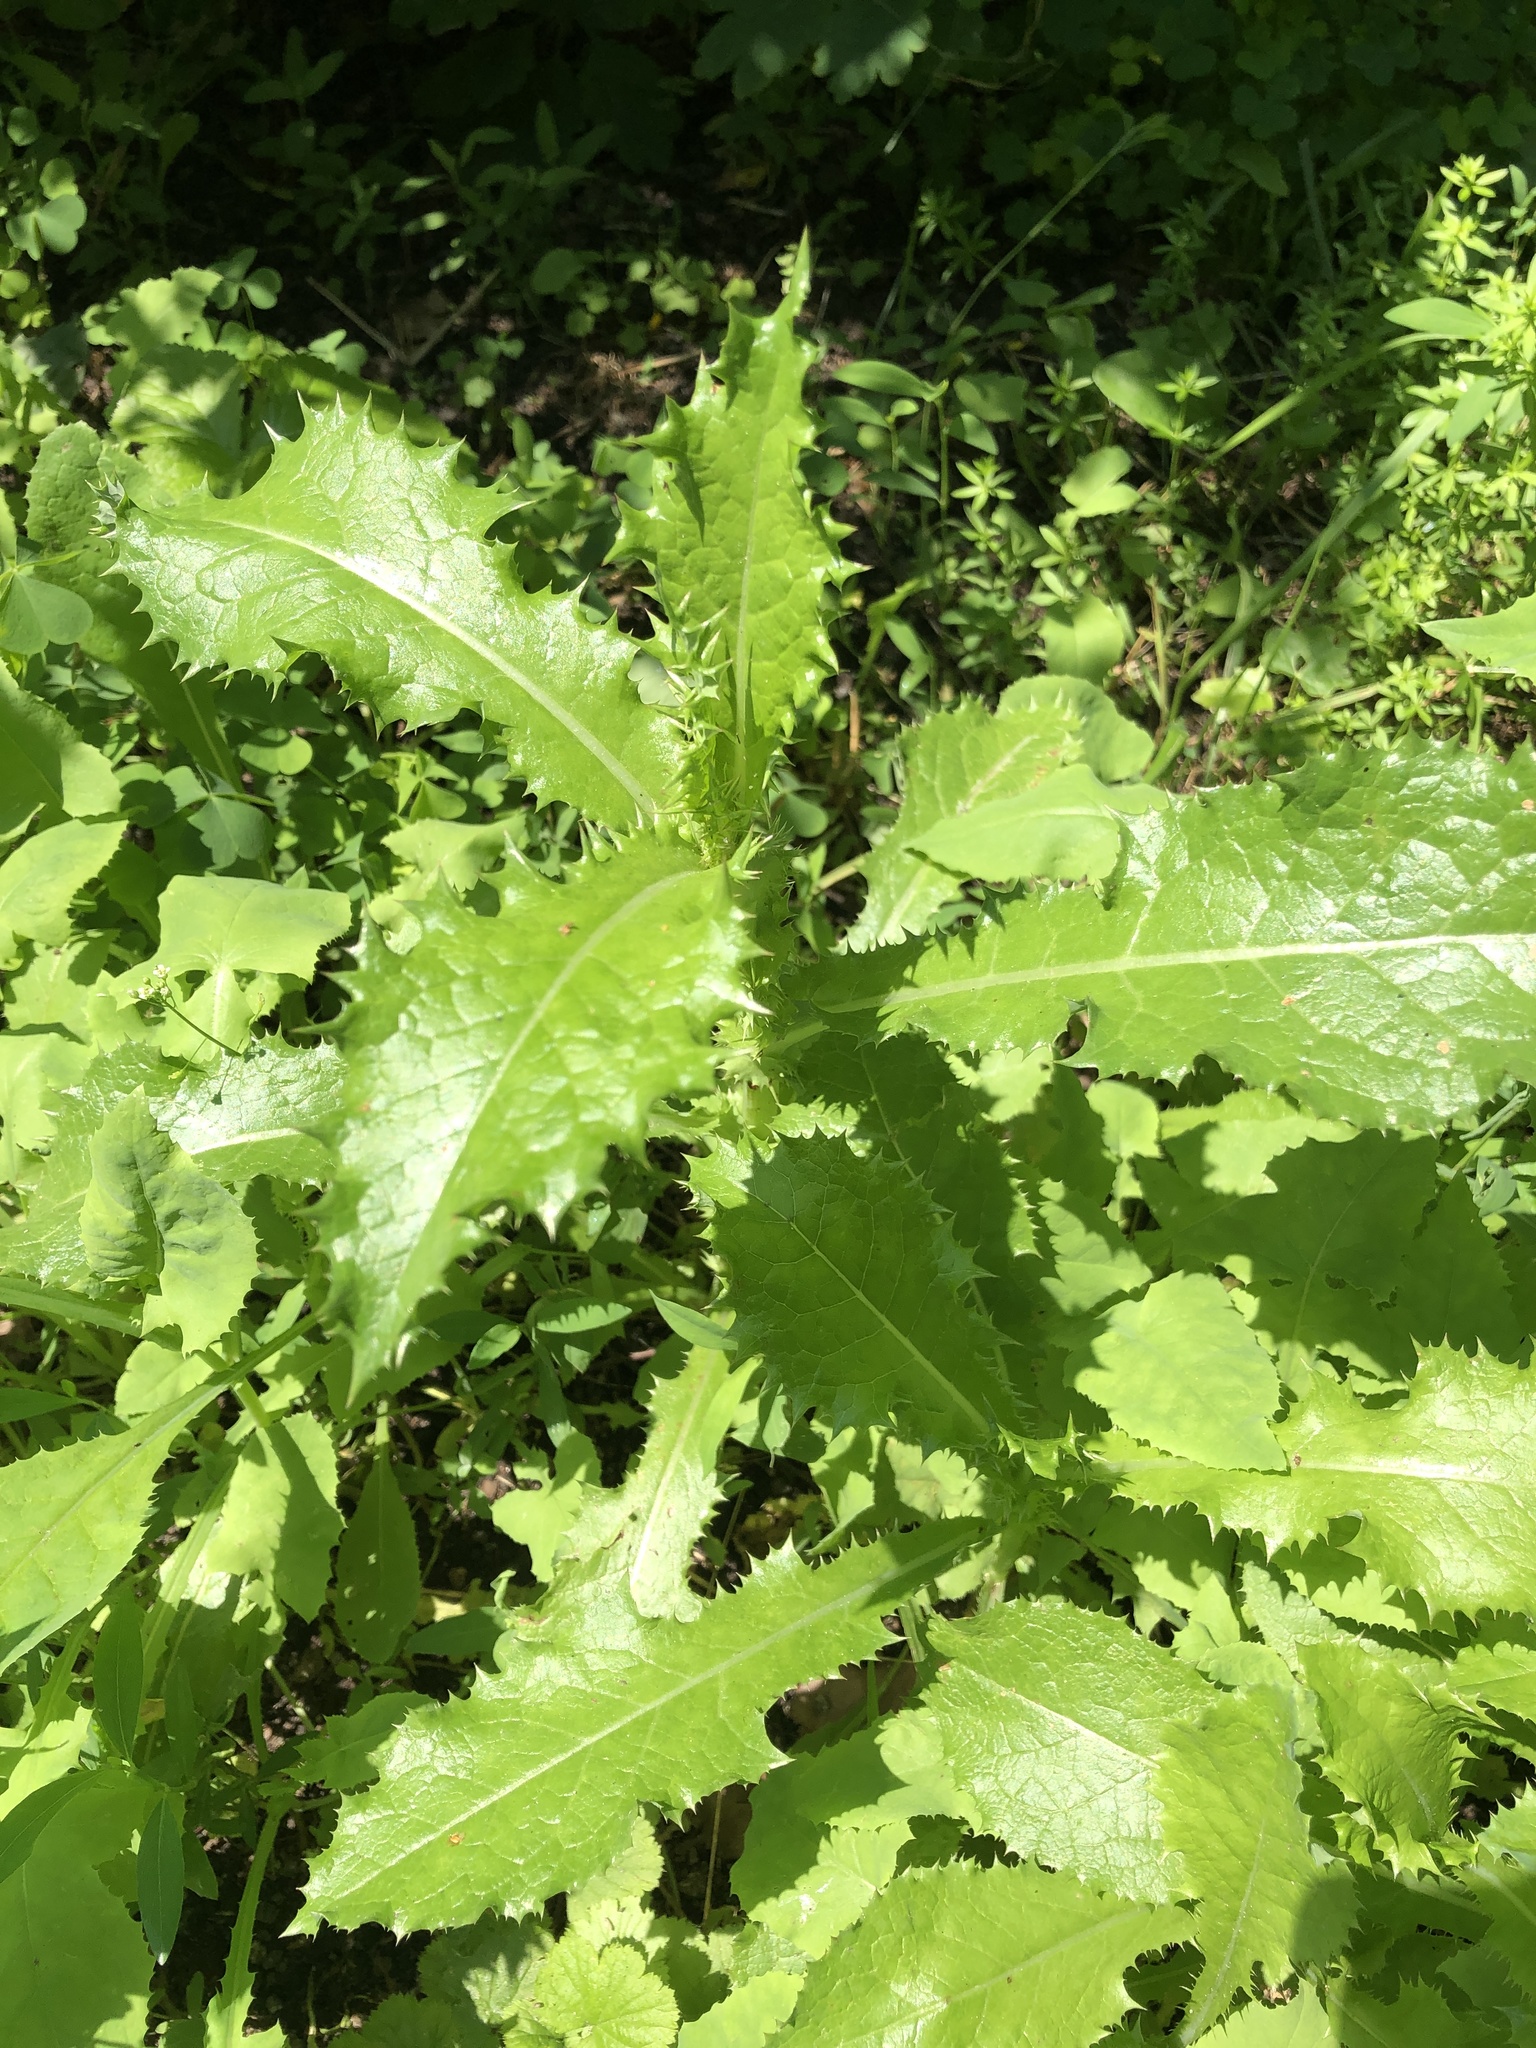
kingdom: Plantae
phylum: Tracheophyta
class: Magnoliopsida
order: Asterales
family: Asteraceae
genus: Sonchus
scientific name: Sonchus asper
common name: Prickly sow-thistle
